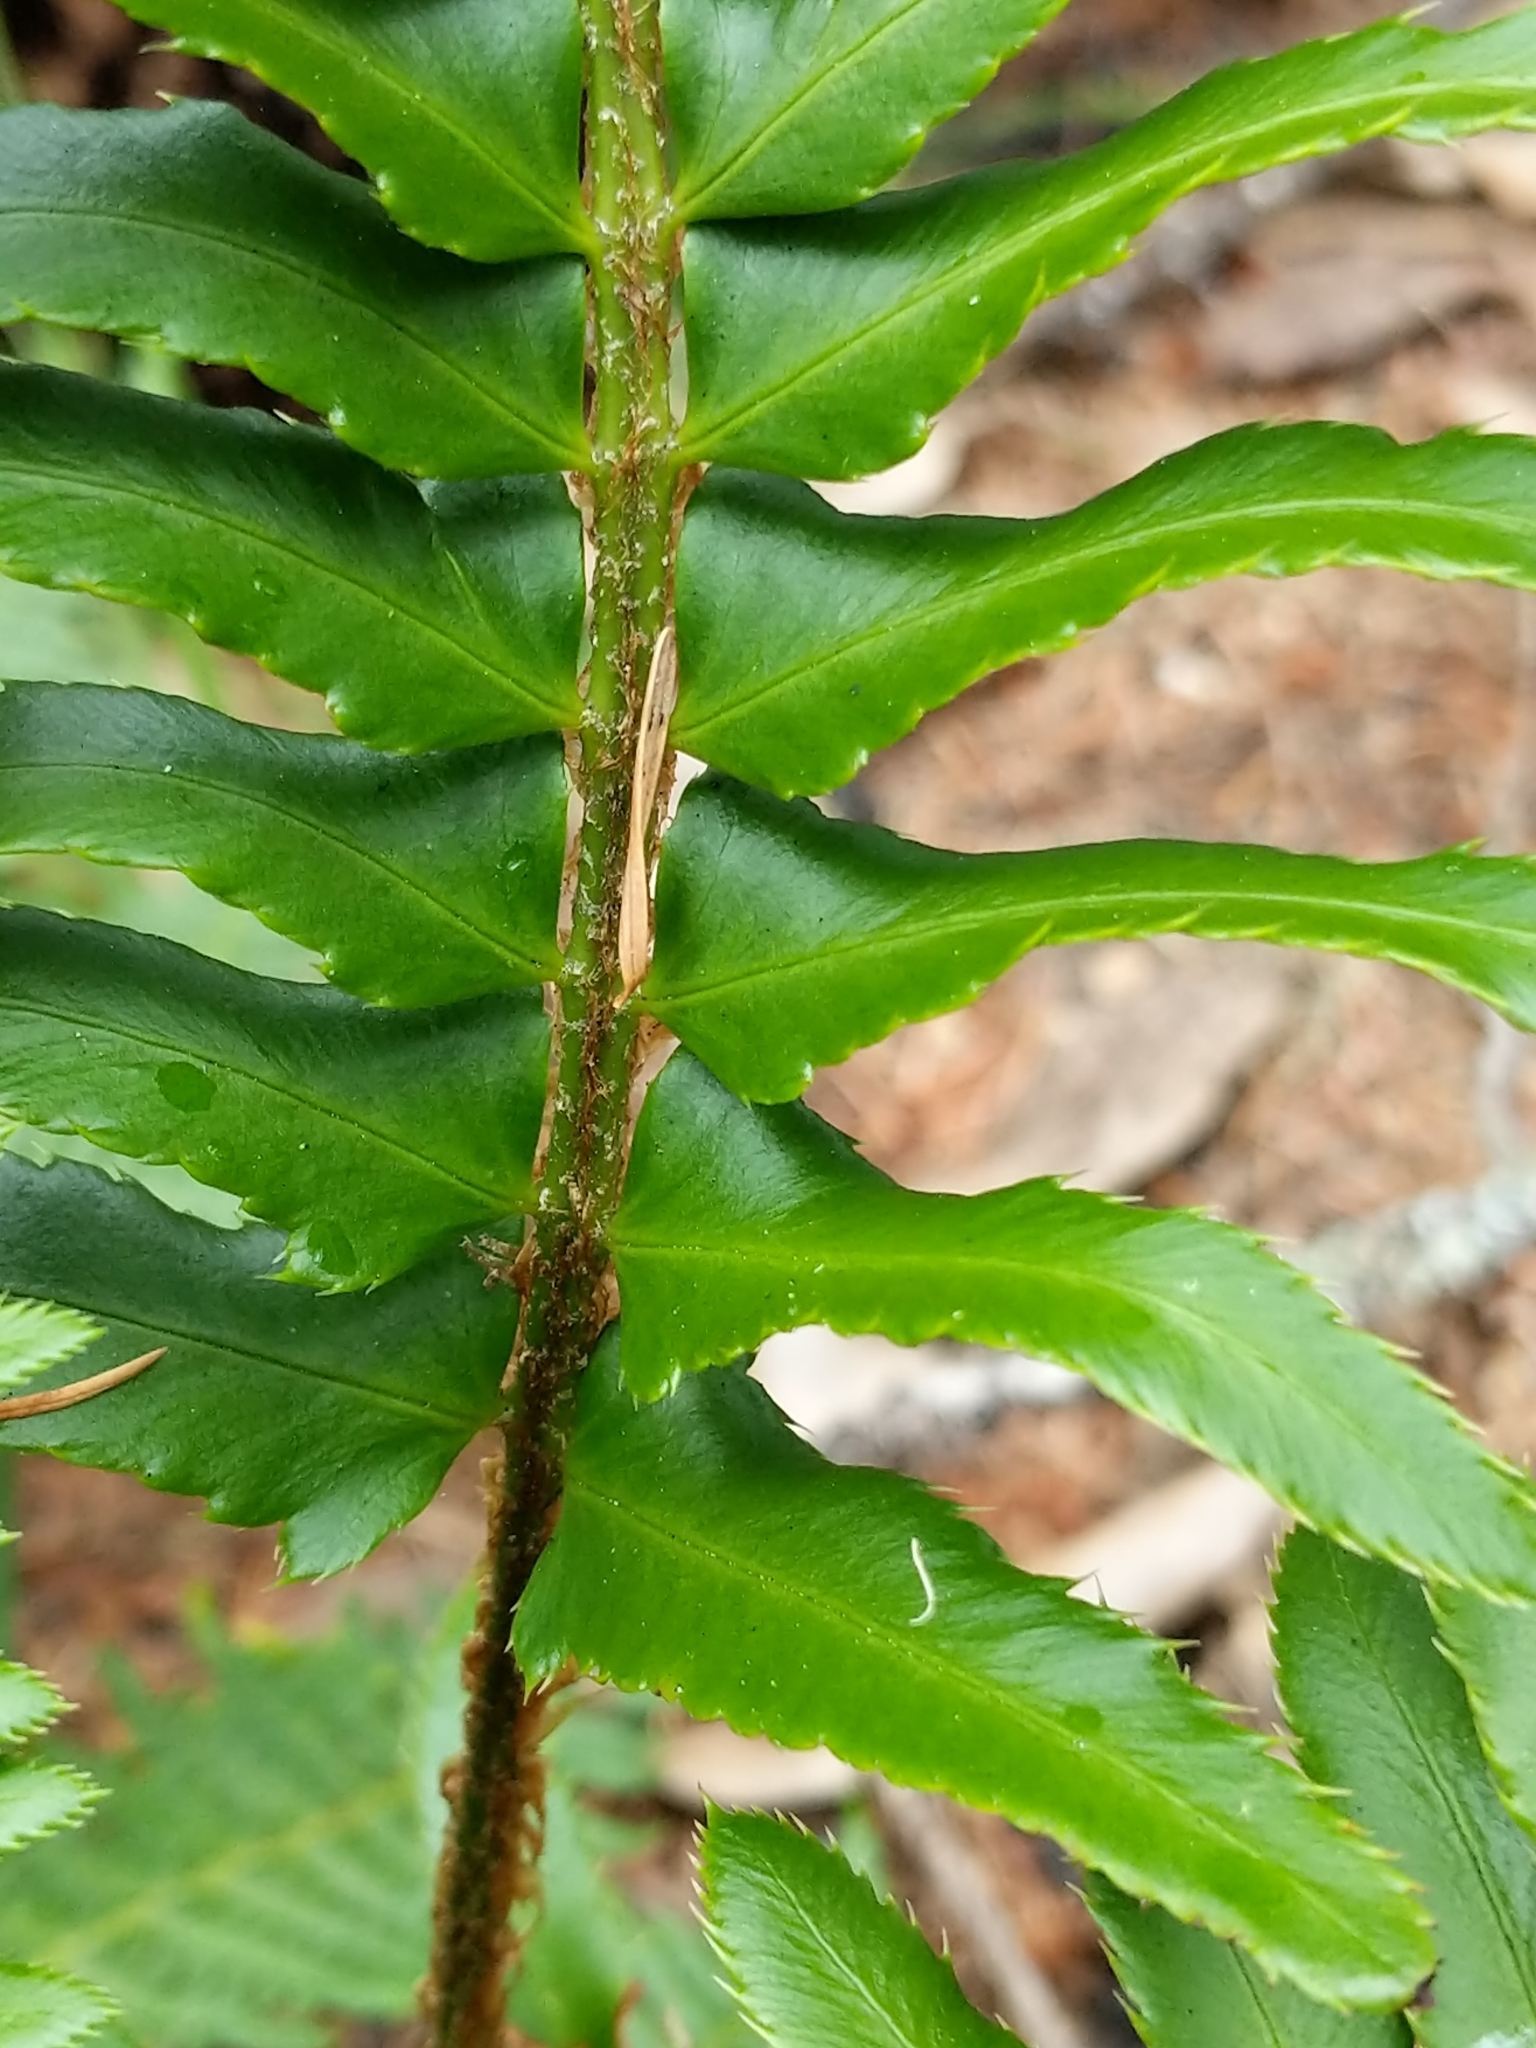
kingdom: Plantae
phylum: Tracheophyta
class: Polypodiopsida
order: Polypodiales
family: Dryopteridaceae
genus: Polystichum
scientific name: Polystichum munitum
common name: Western sword-fern
